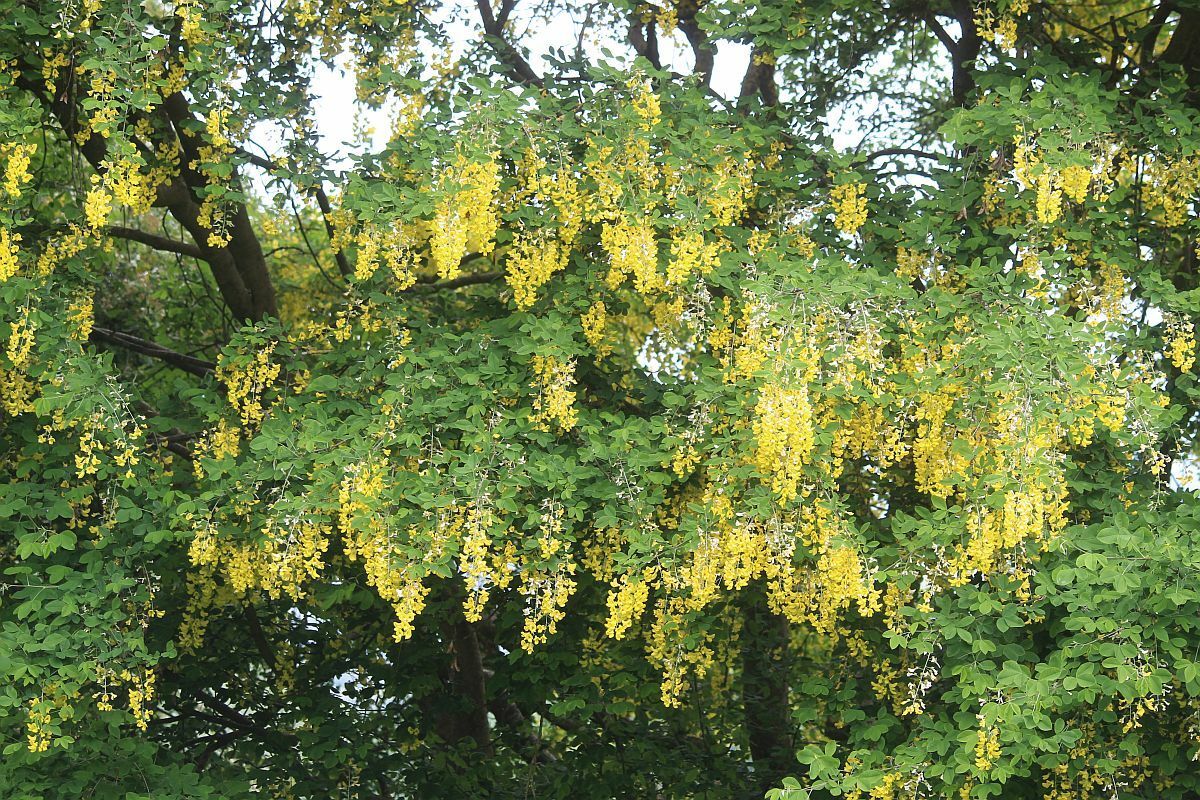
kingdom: Plantae
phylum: Tracheophyta
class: Magnoliopsida
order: Fabales
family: Fabaceae
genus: Laburnum
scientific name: Laburnum anagyroides
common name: Laburnum
